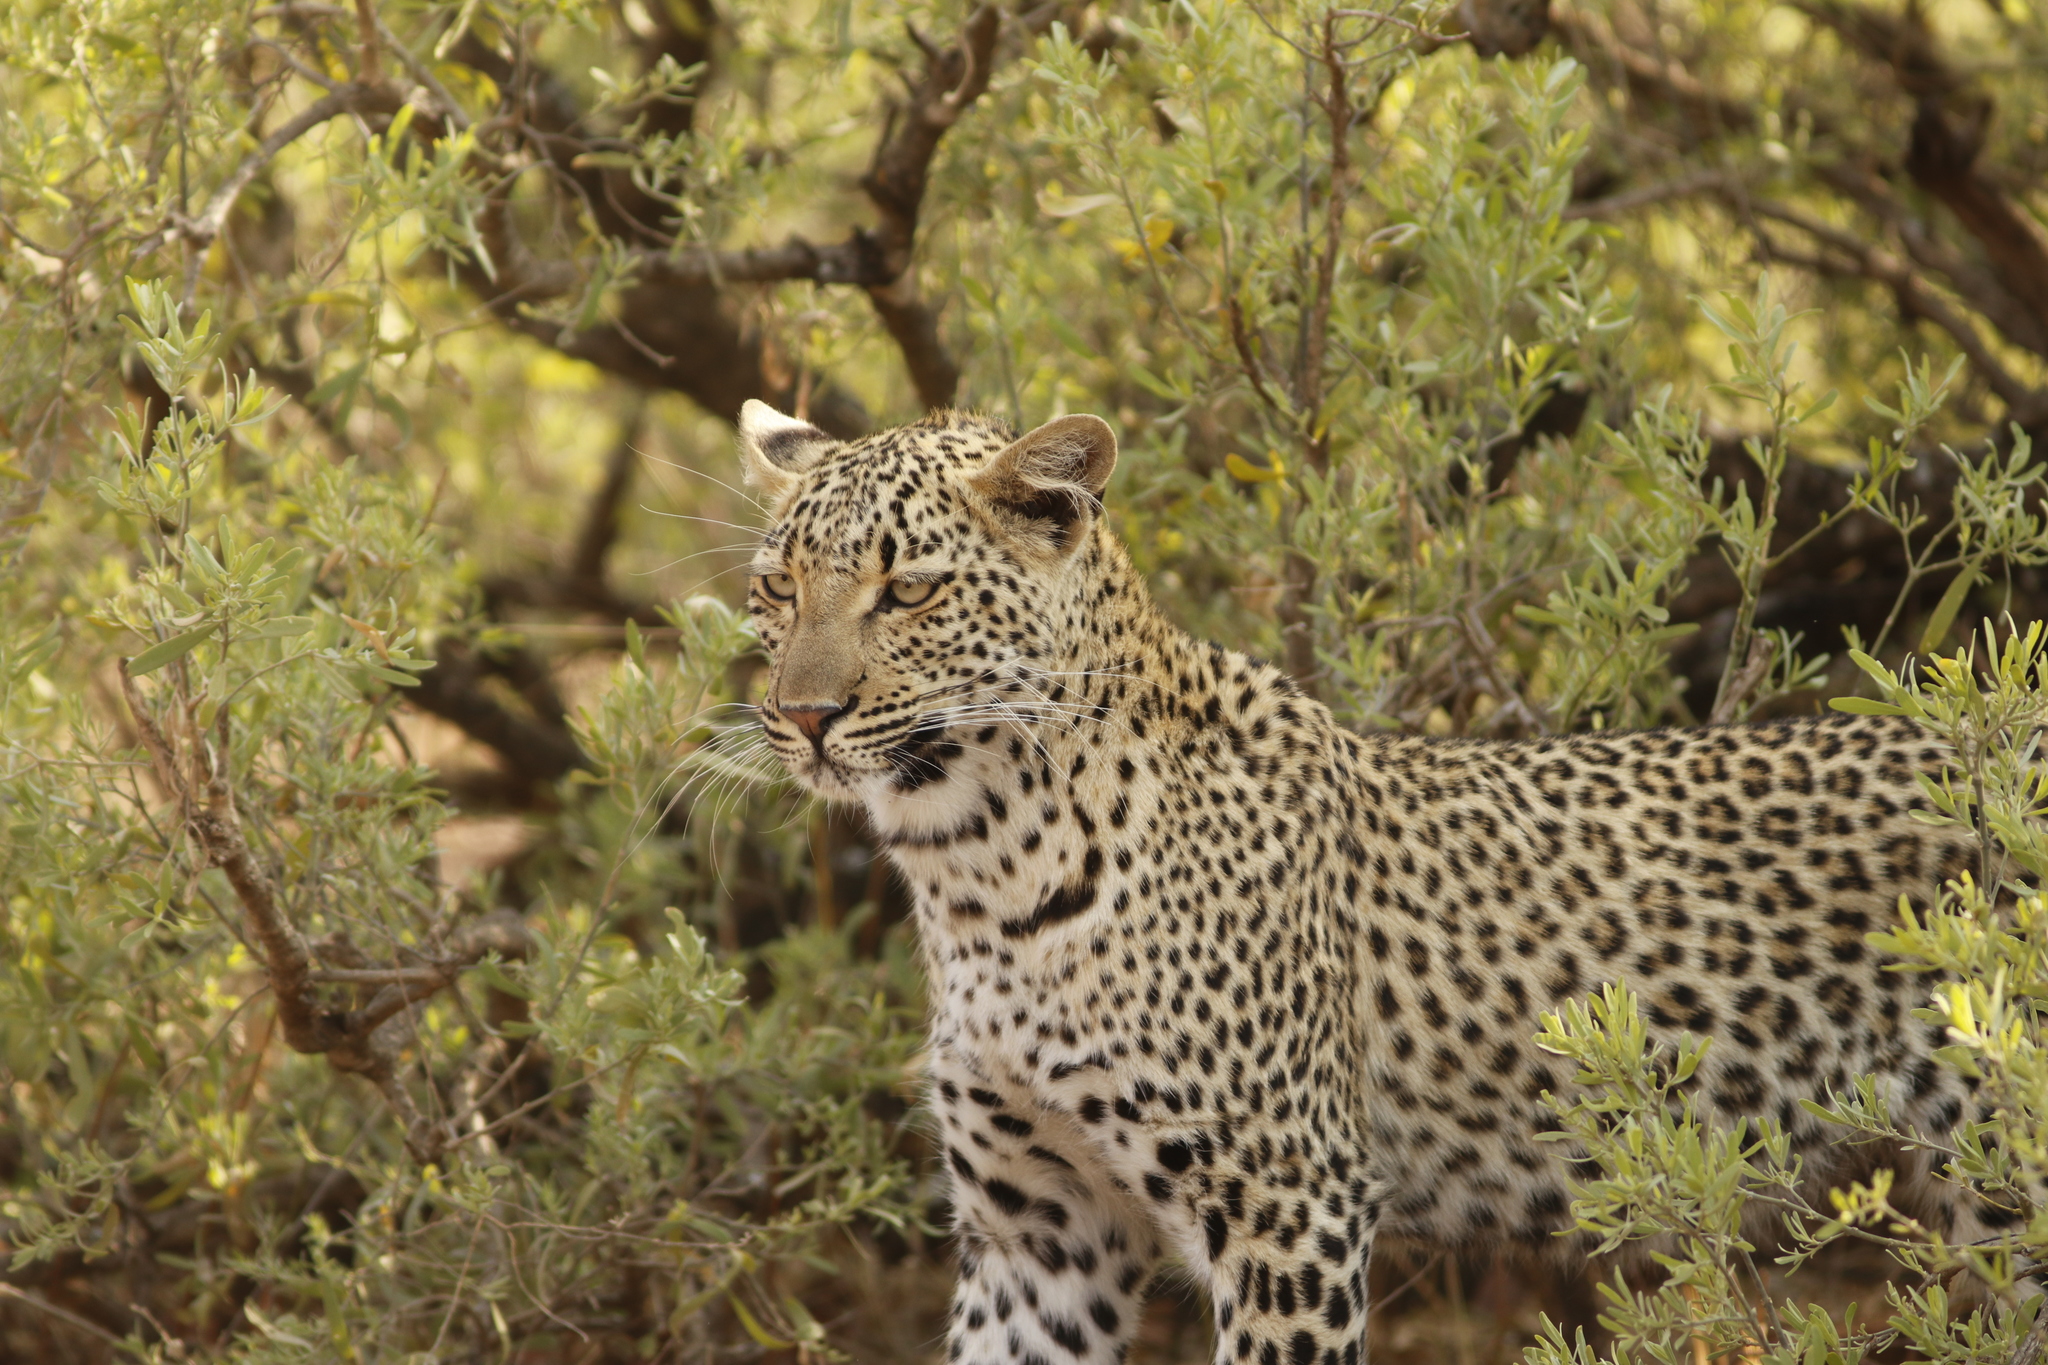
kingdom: Animalia
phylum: Chordata
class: Mammalia
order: Carnivora
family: Felidae
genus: Panthera
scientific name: Panthera pardus
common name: Leopard
